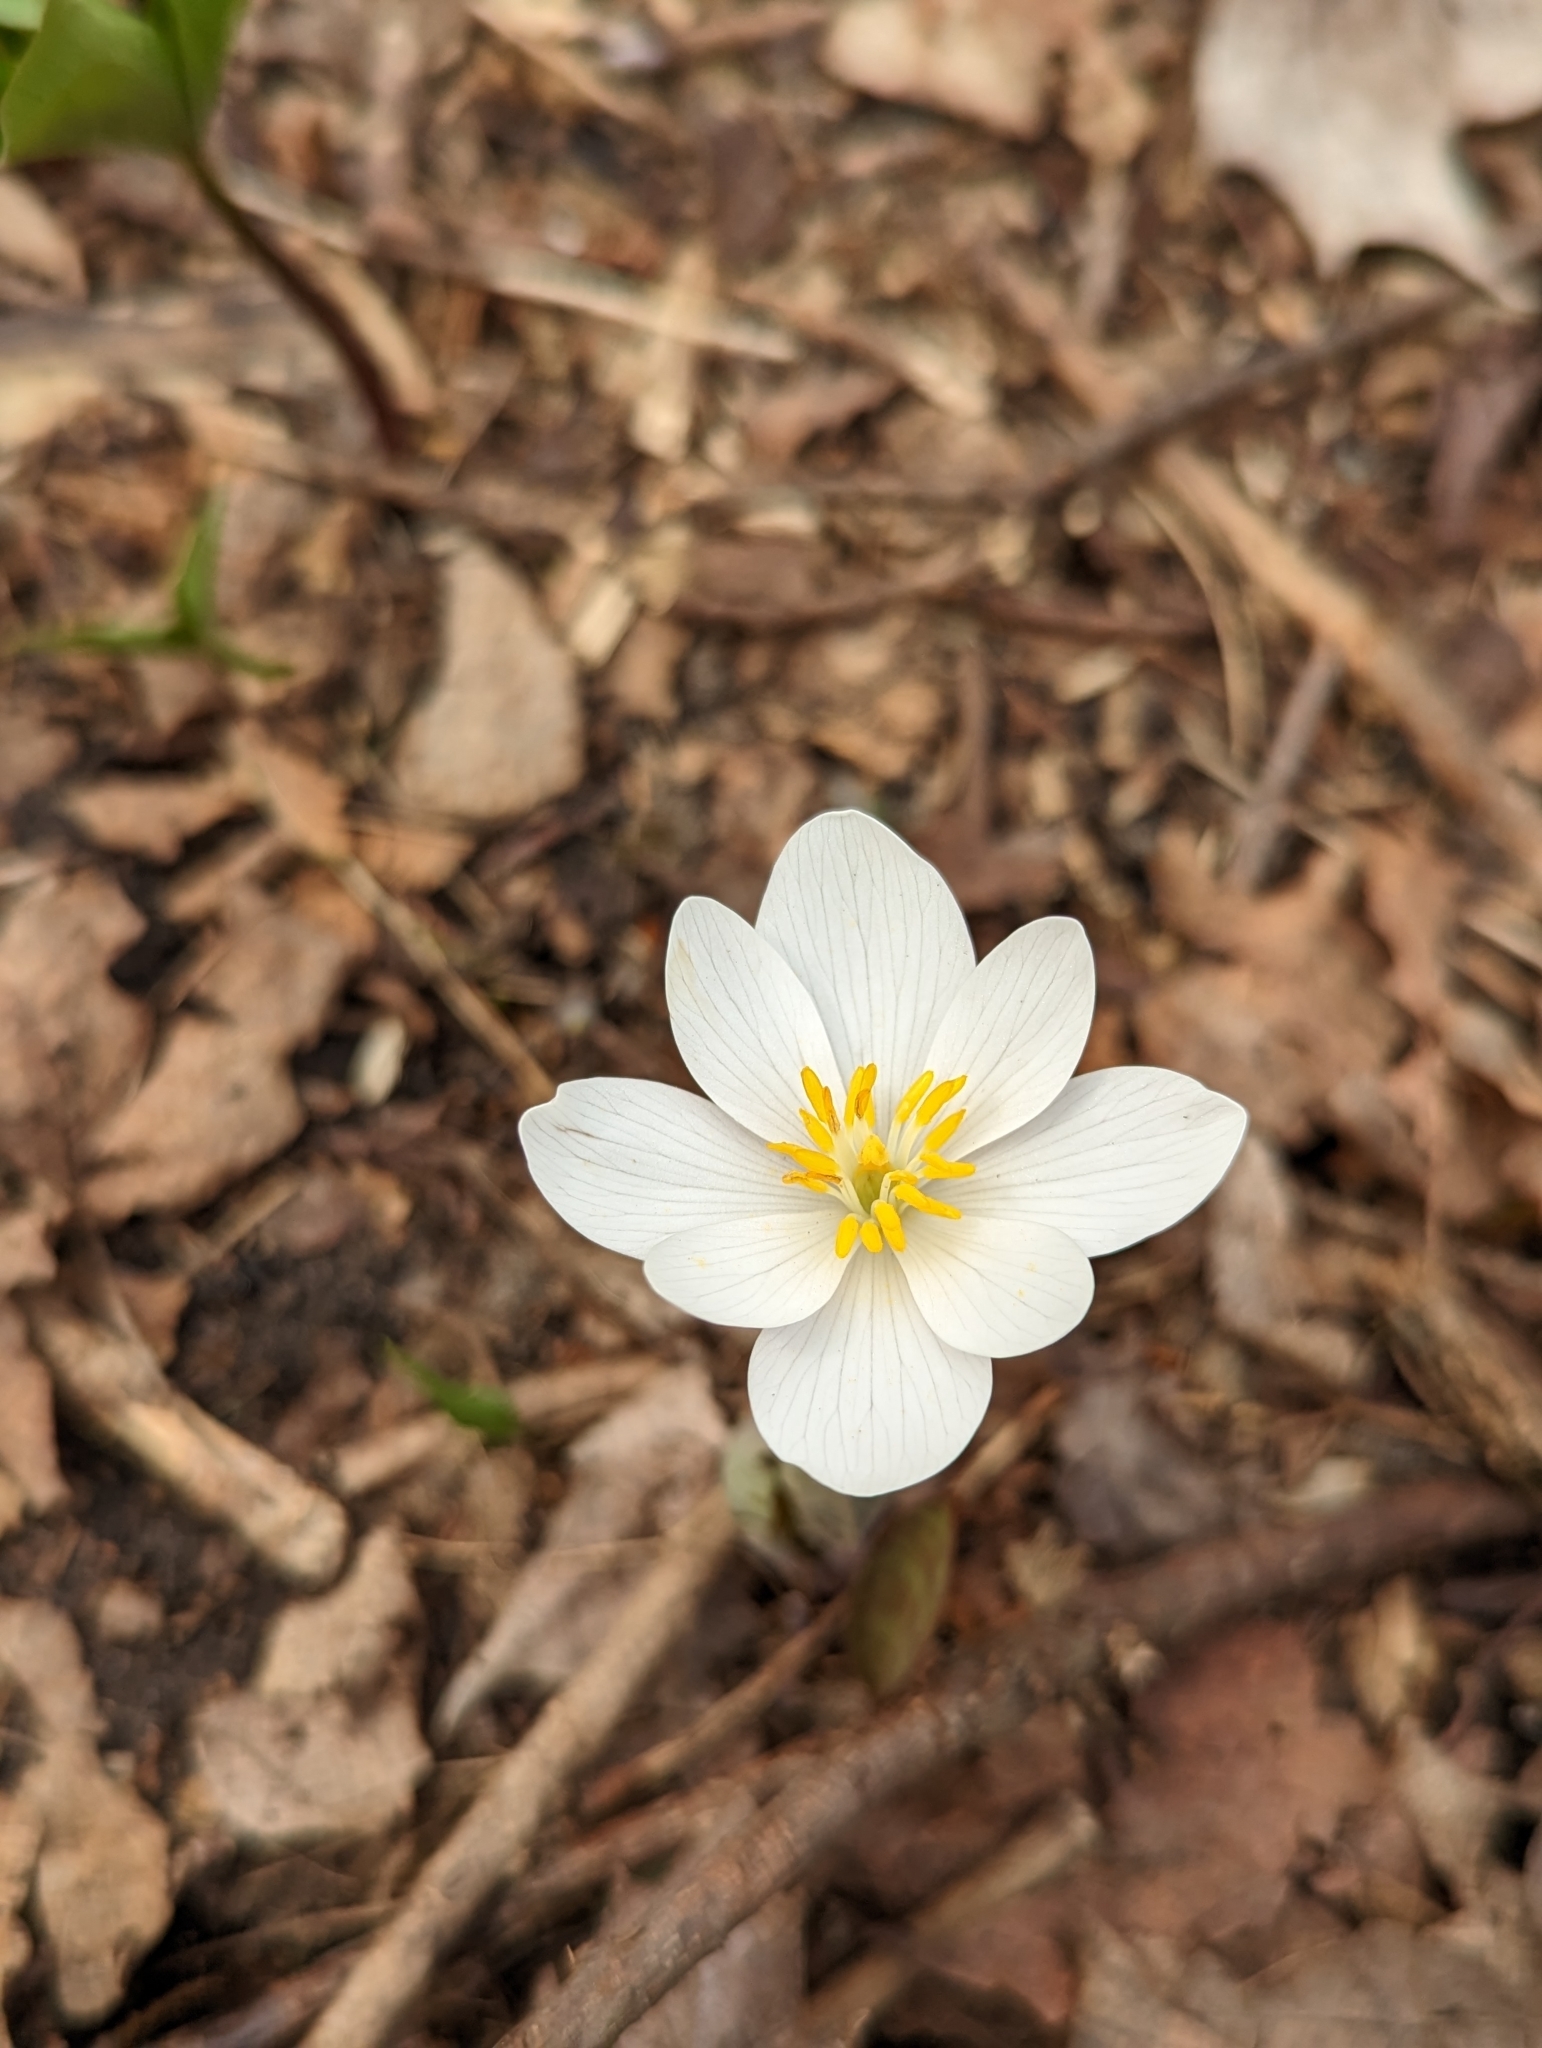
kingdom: Plantae
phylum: Tracheophyta
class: Magnoliopsida
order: Ranunculales
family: Papaveraceae
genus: Sanguinaria
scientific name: Sanguinaria canadensis
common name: Bloodroot
